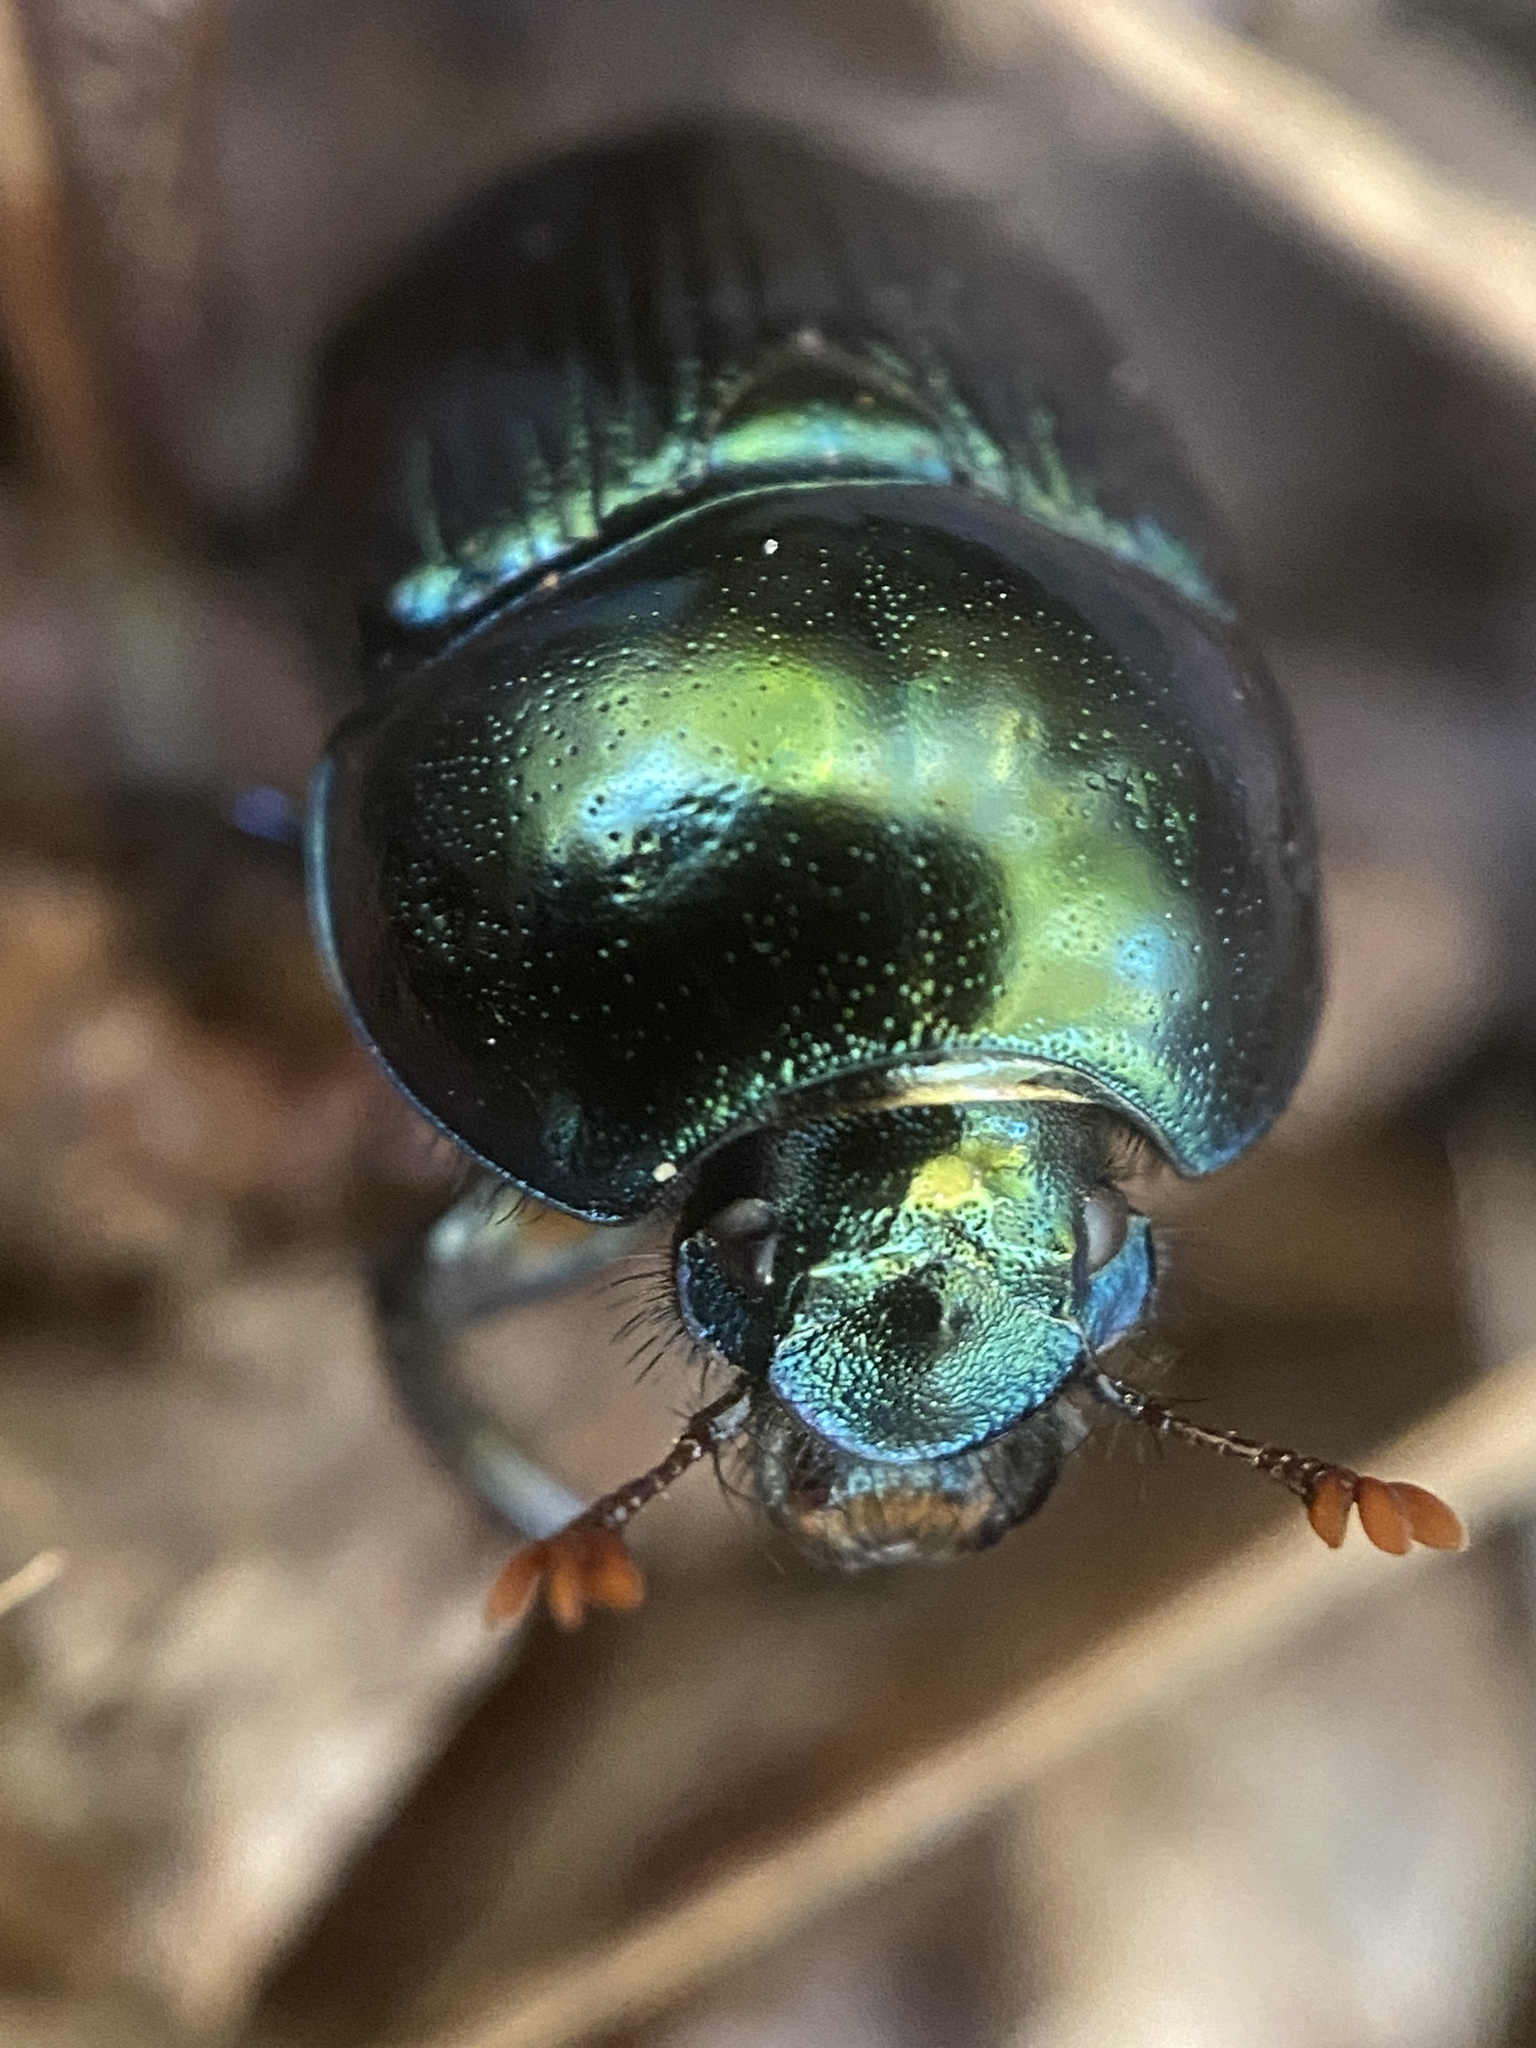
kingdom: Animalia
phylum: Arthropoda
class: Insecta
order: Coleoptera
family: Geotrupidae
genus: Geotrupes
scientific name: Geotrupes splendidus
